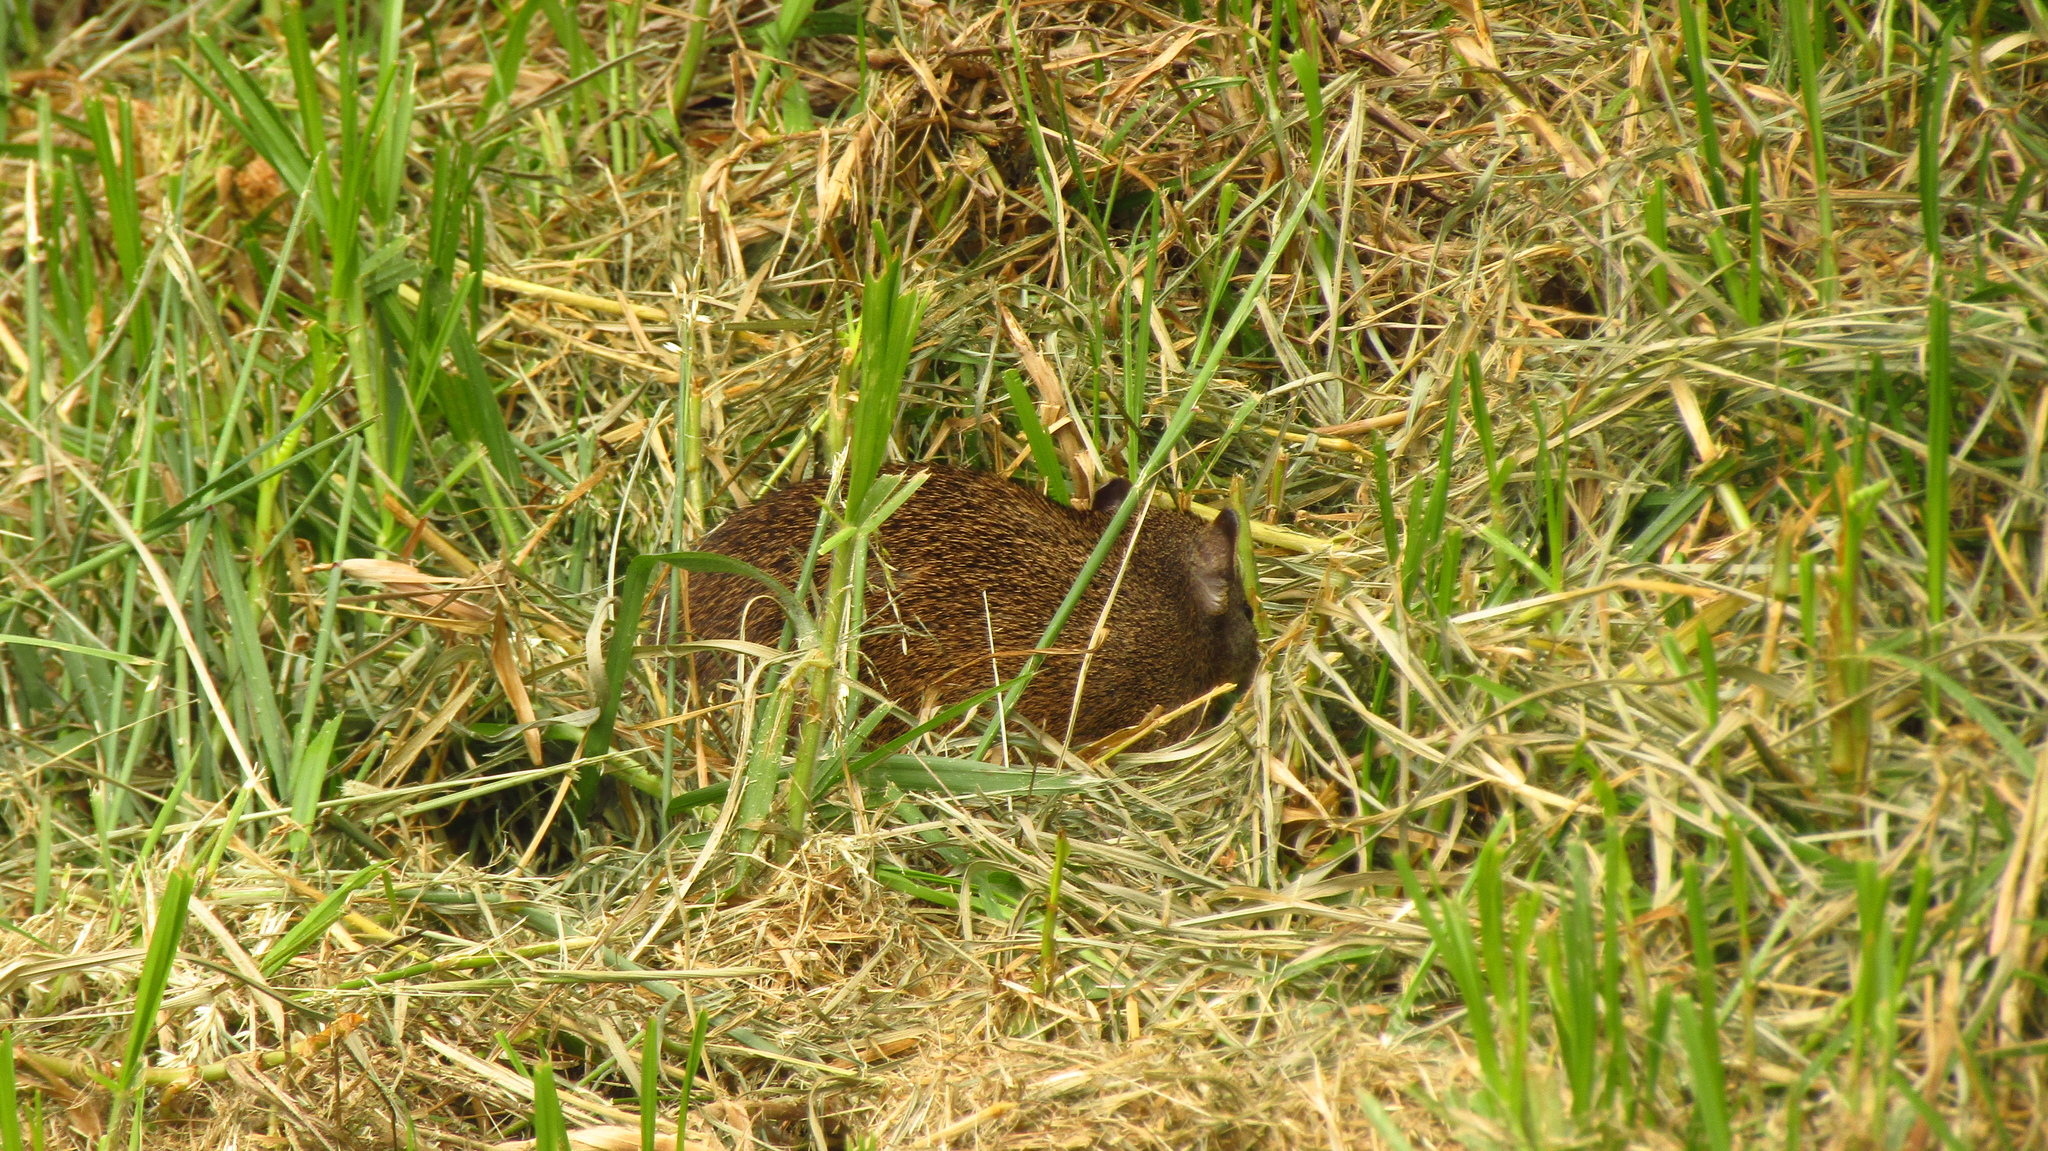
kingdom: Animalia
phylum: Chordata
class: Mammalia
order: Peramelemorphia
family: Peramelidae
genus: Isoodon
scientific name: Isoodon fusciventer
